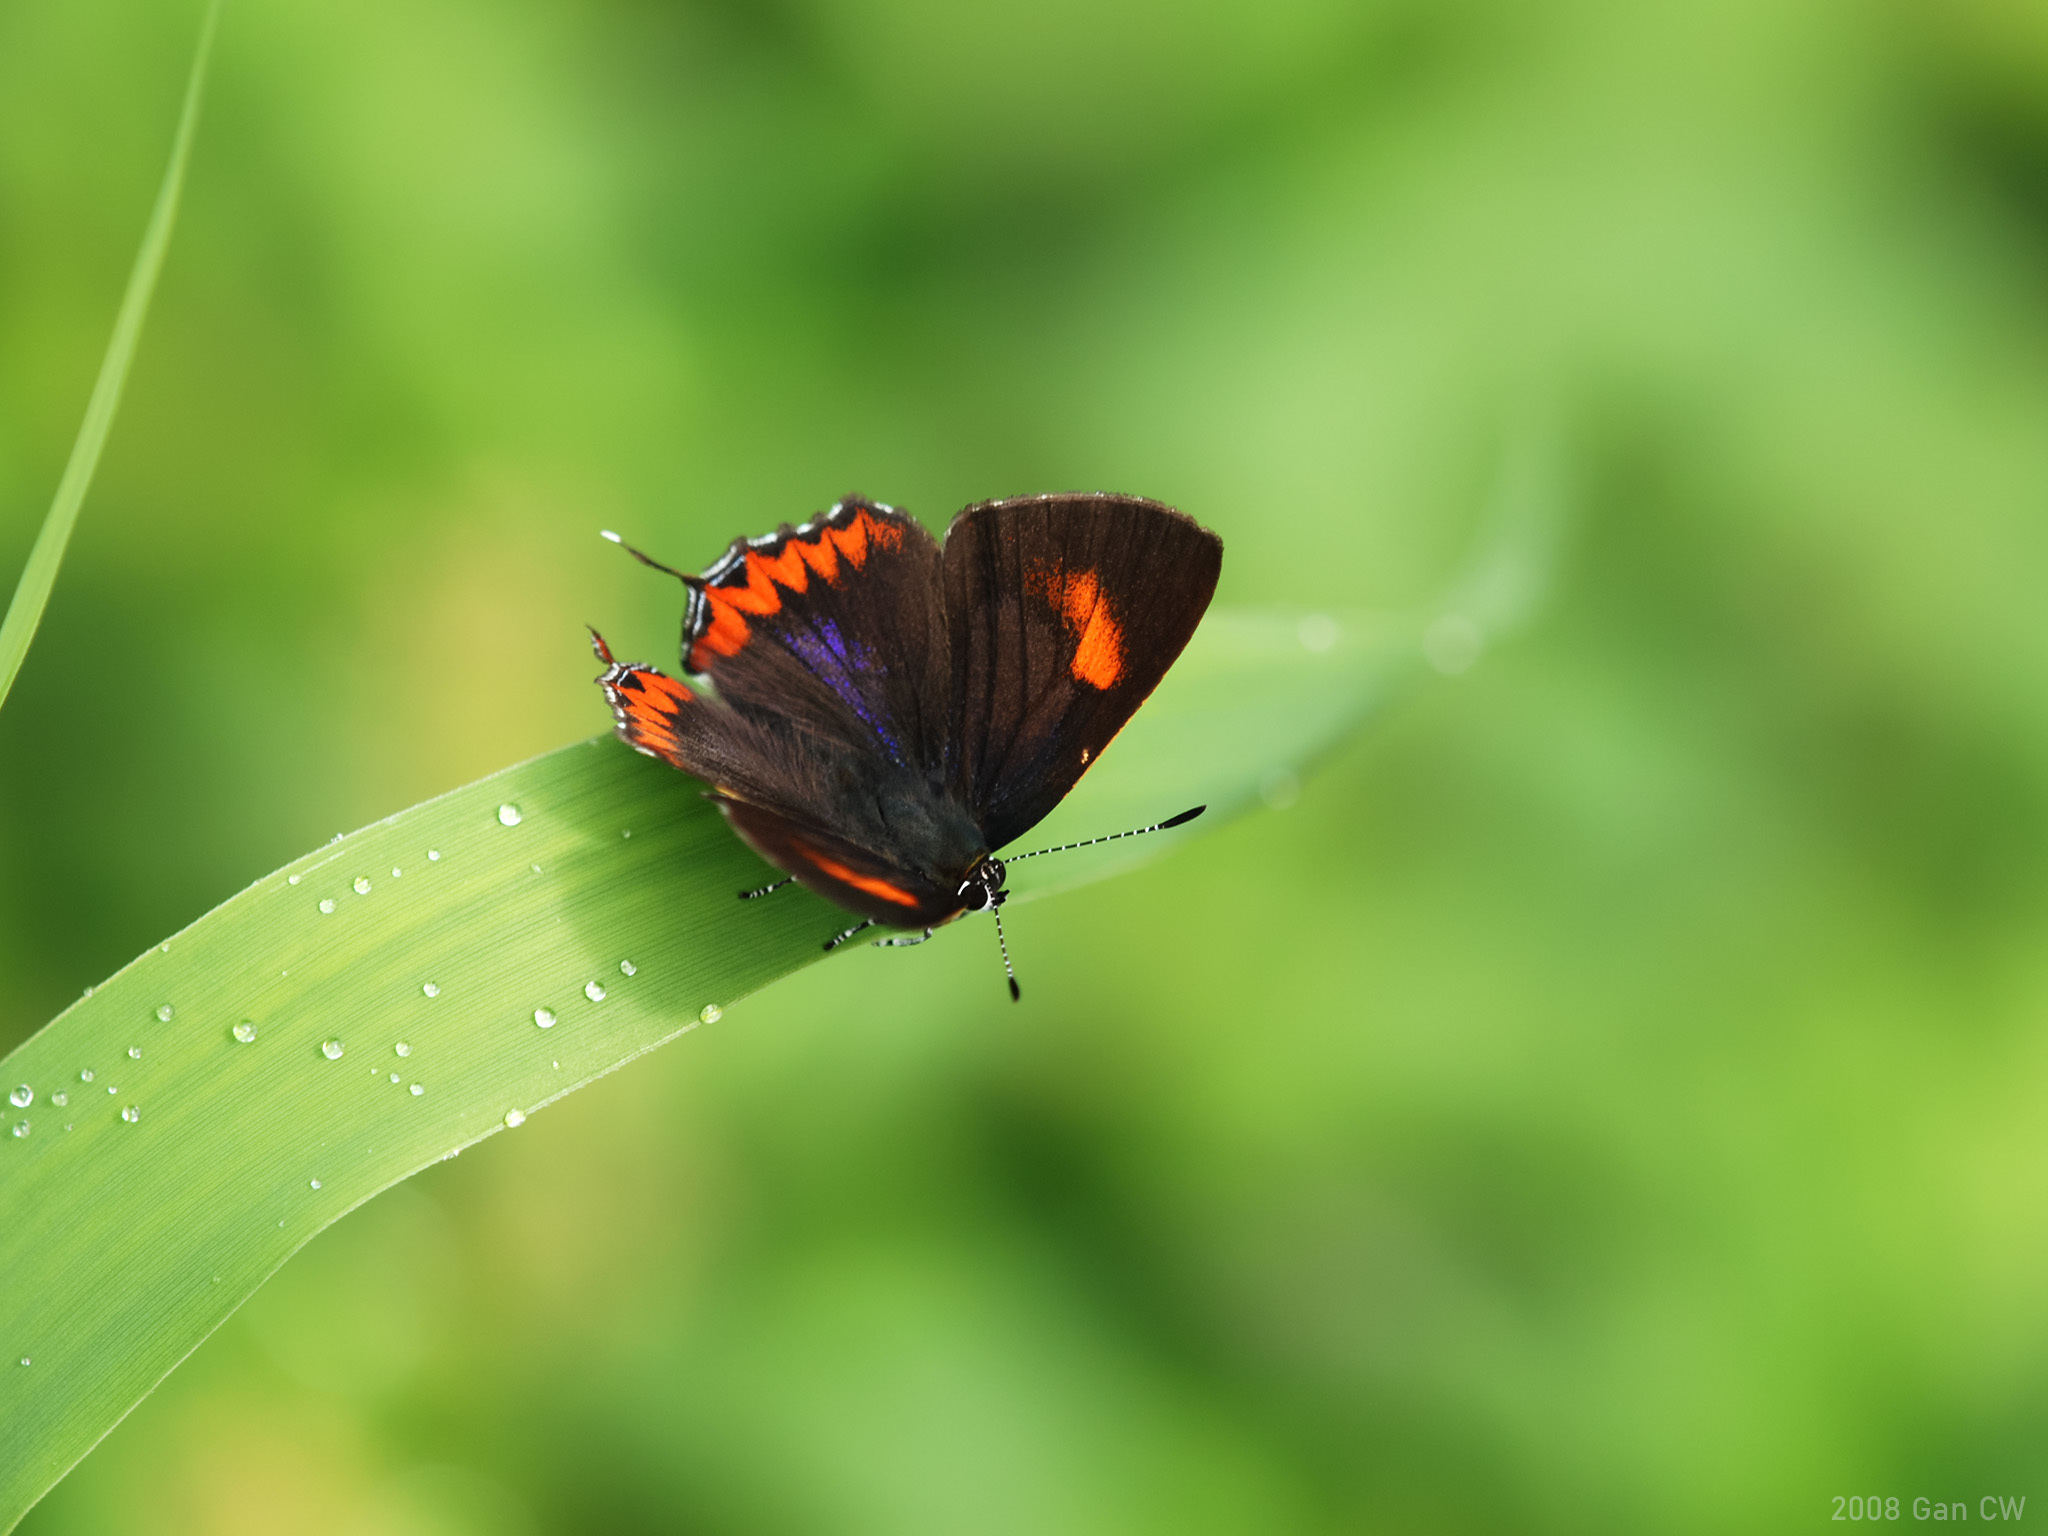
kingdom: Animalia
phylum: Arthropoda
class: Insecta
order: Lepidoptera
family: Lycaenidae
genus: Heliophorus
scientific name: Heliophorus epicles
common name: Purple sapphire
